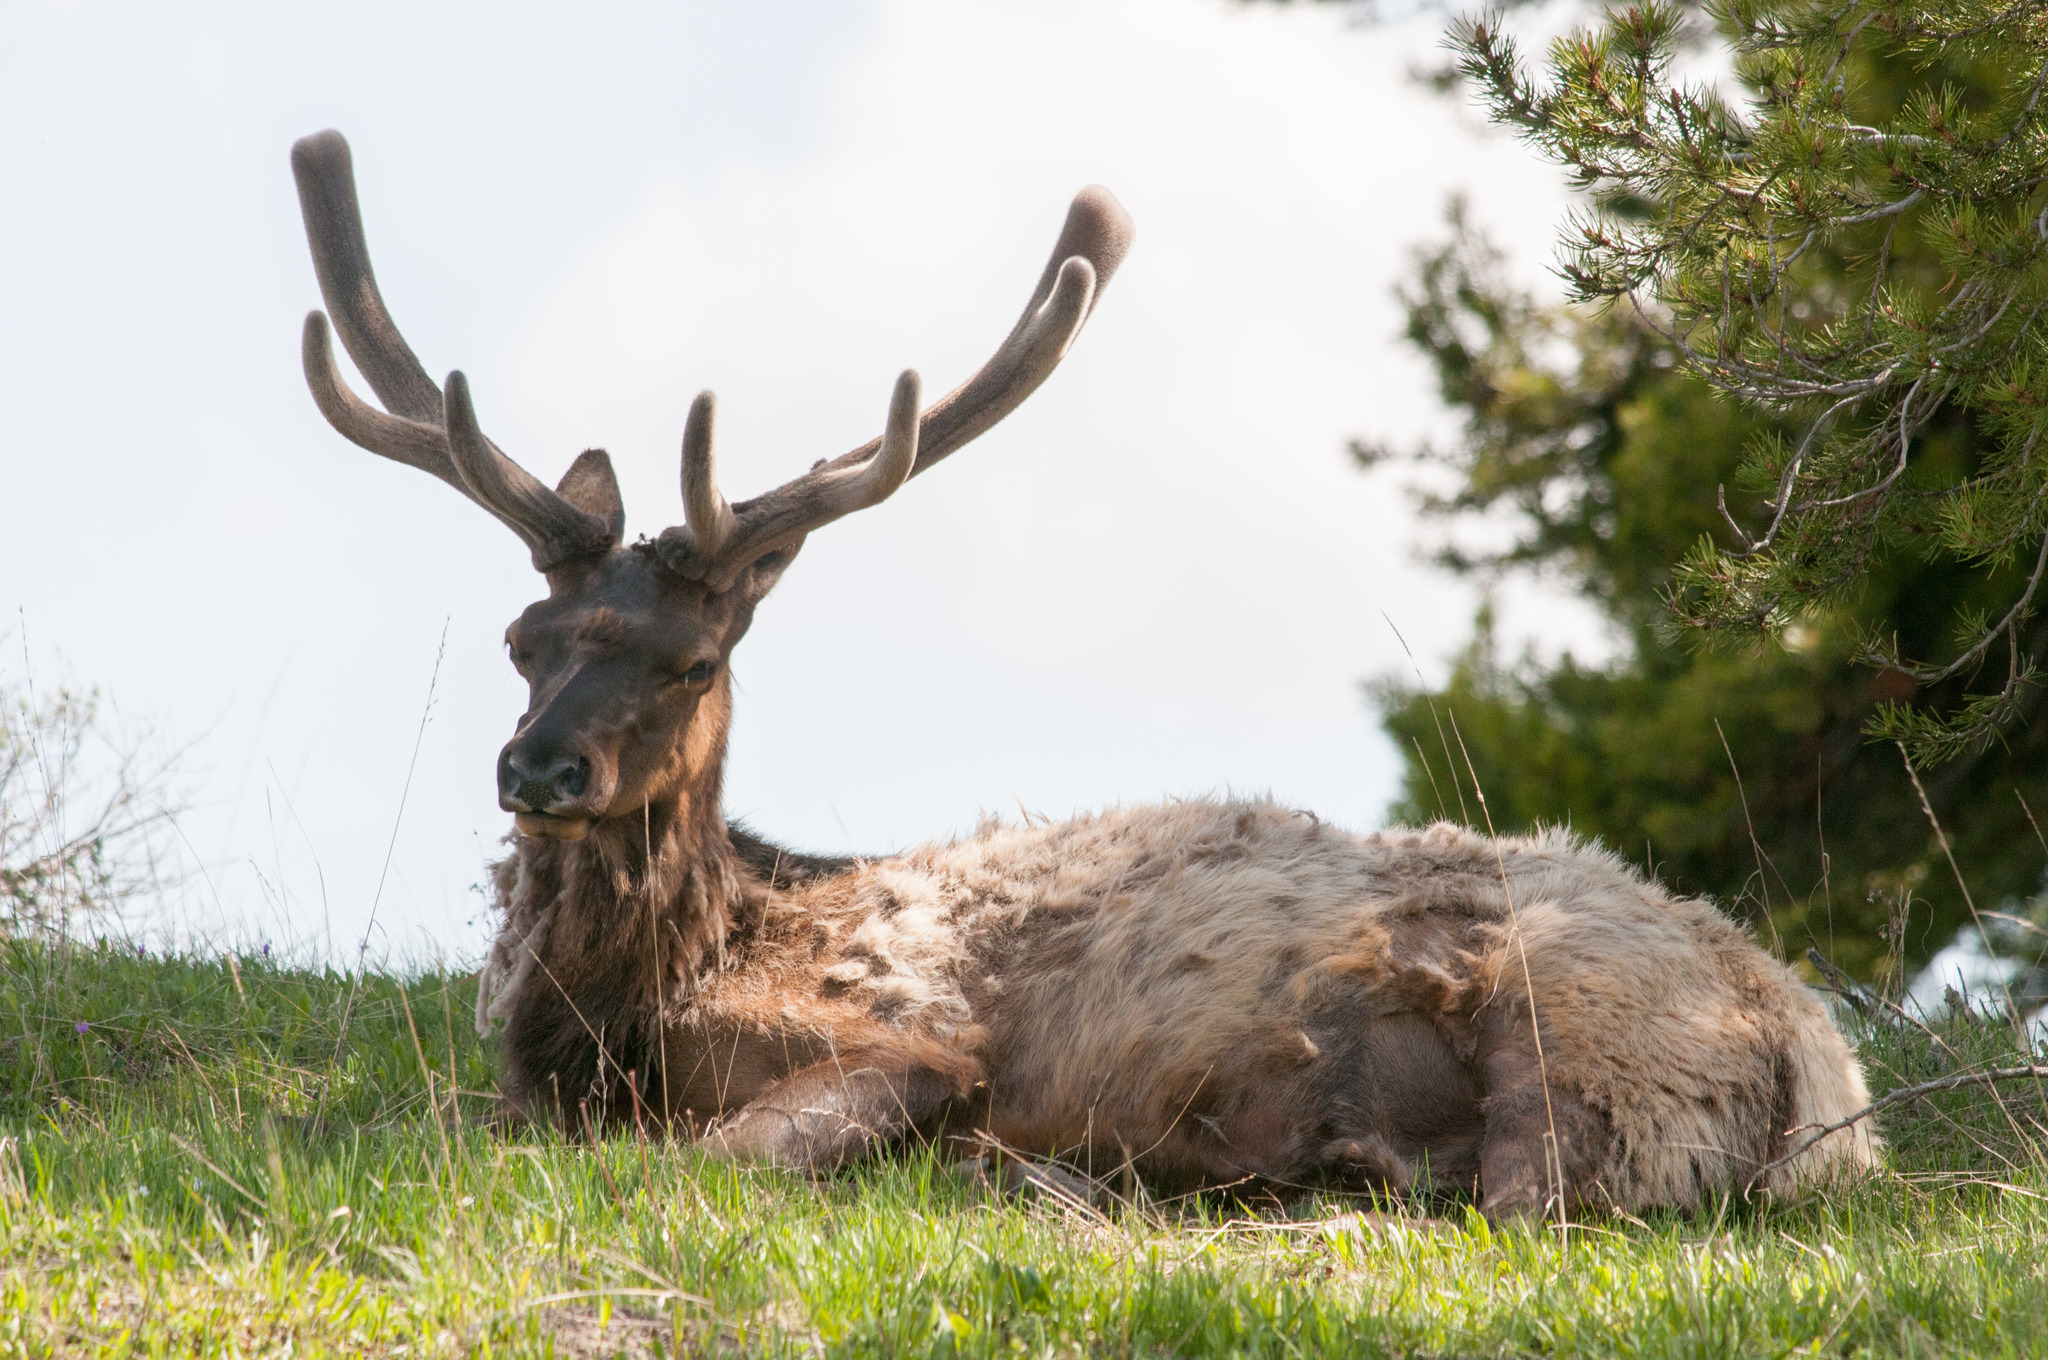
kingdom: Animalia
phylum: Chordata
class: Mammalia
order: Artiodactyla
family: Cervidae
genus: Cervus
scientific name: Cervus elaphus
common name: Red deer
